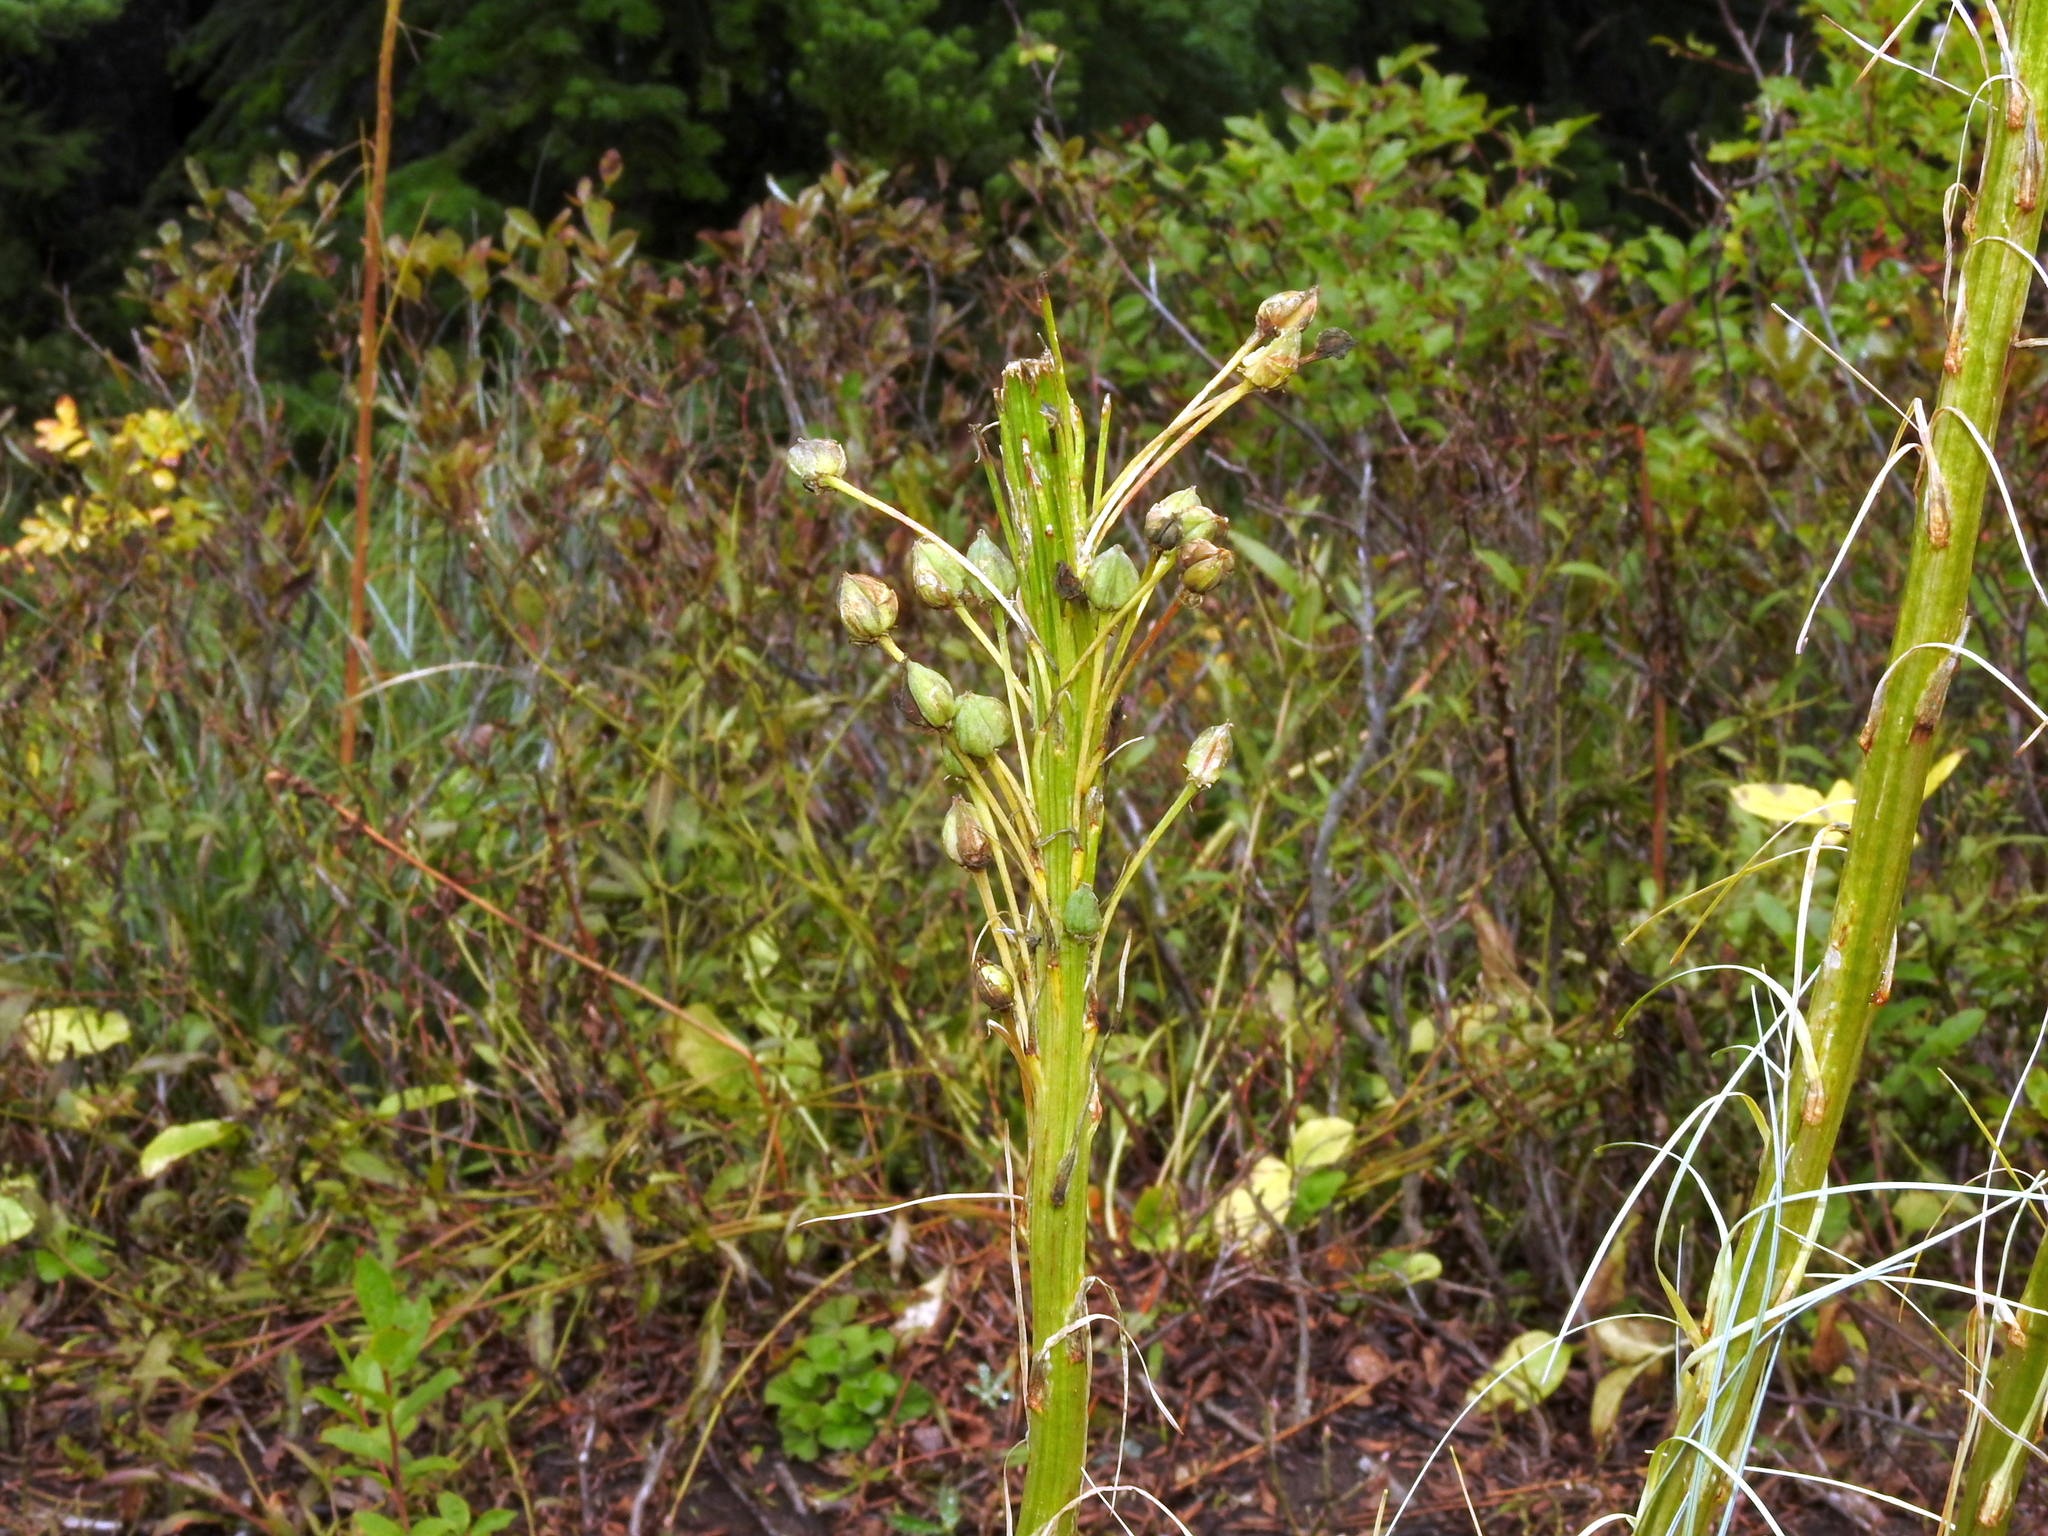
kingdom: Plantae
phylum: Tracheophyta
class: Liliopsida
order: Liliales
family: Melanthiaceae
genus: Xerophyllum
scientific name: Xerophyllum tenax
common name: Bear-grass
